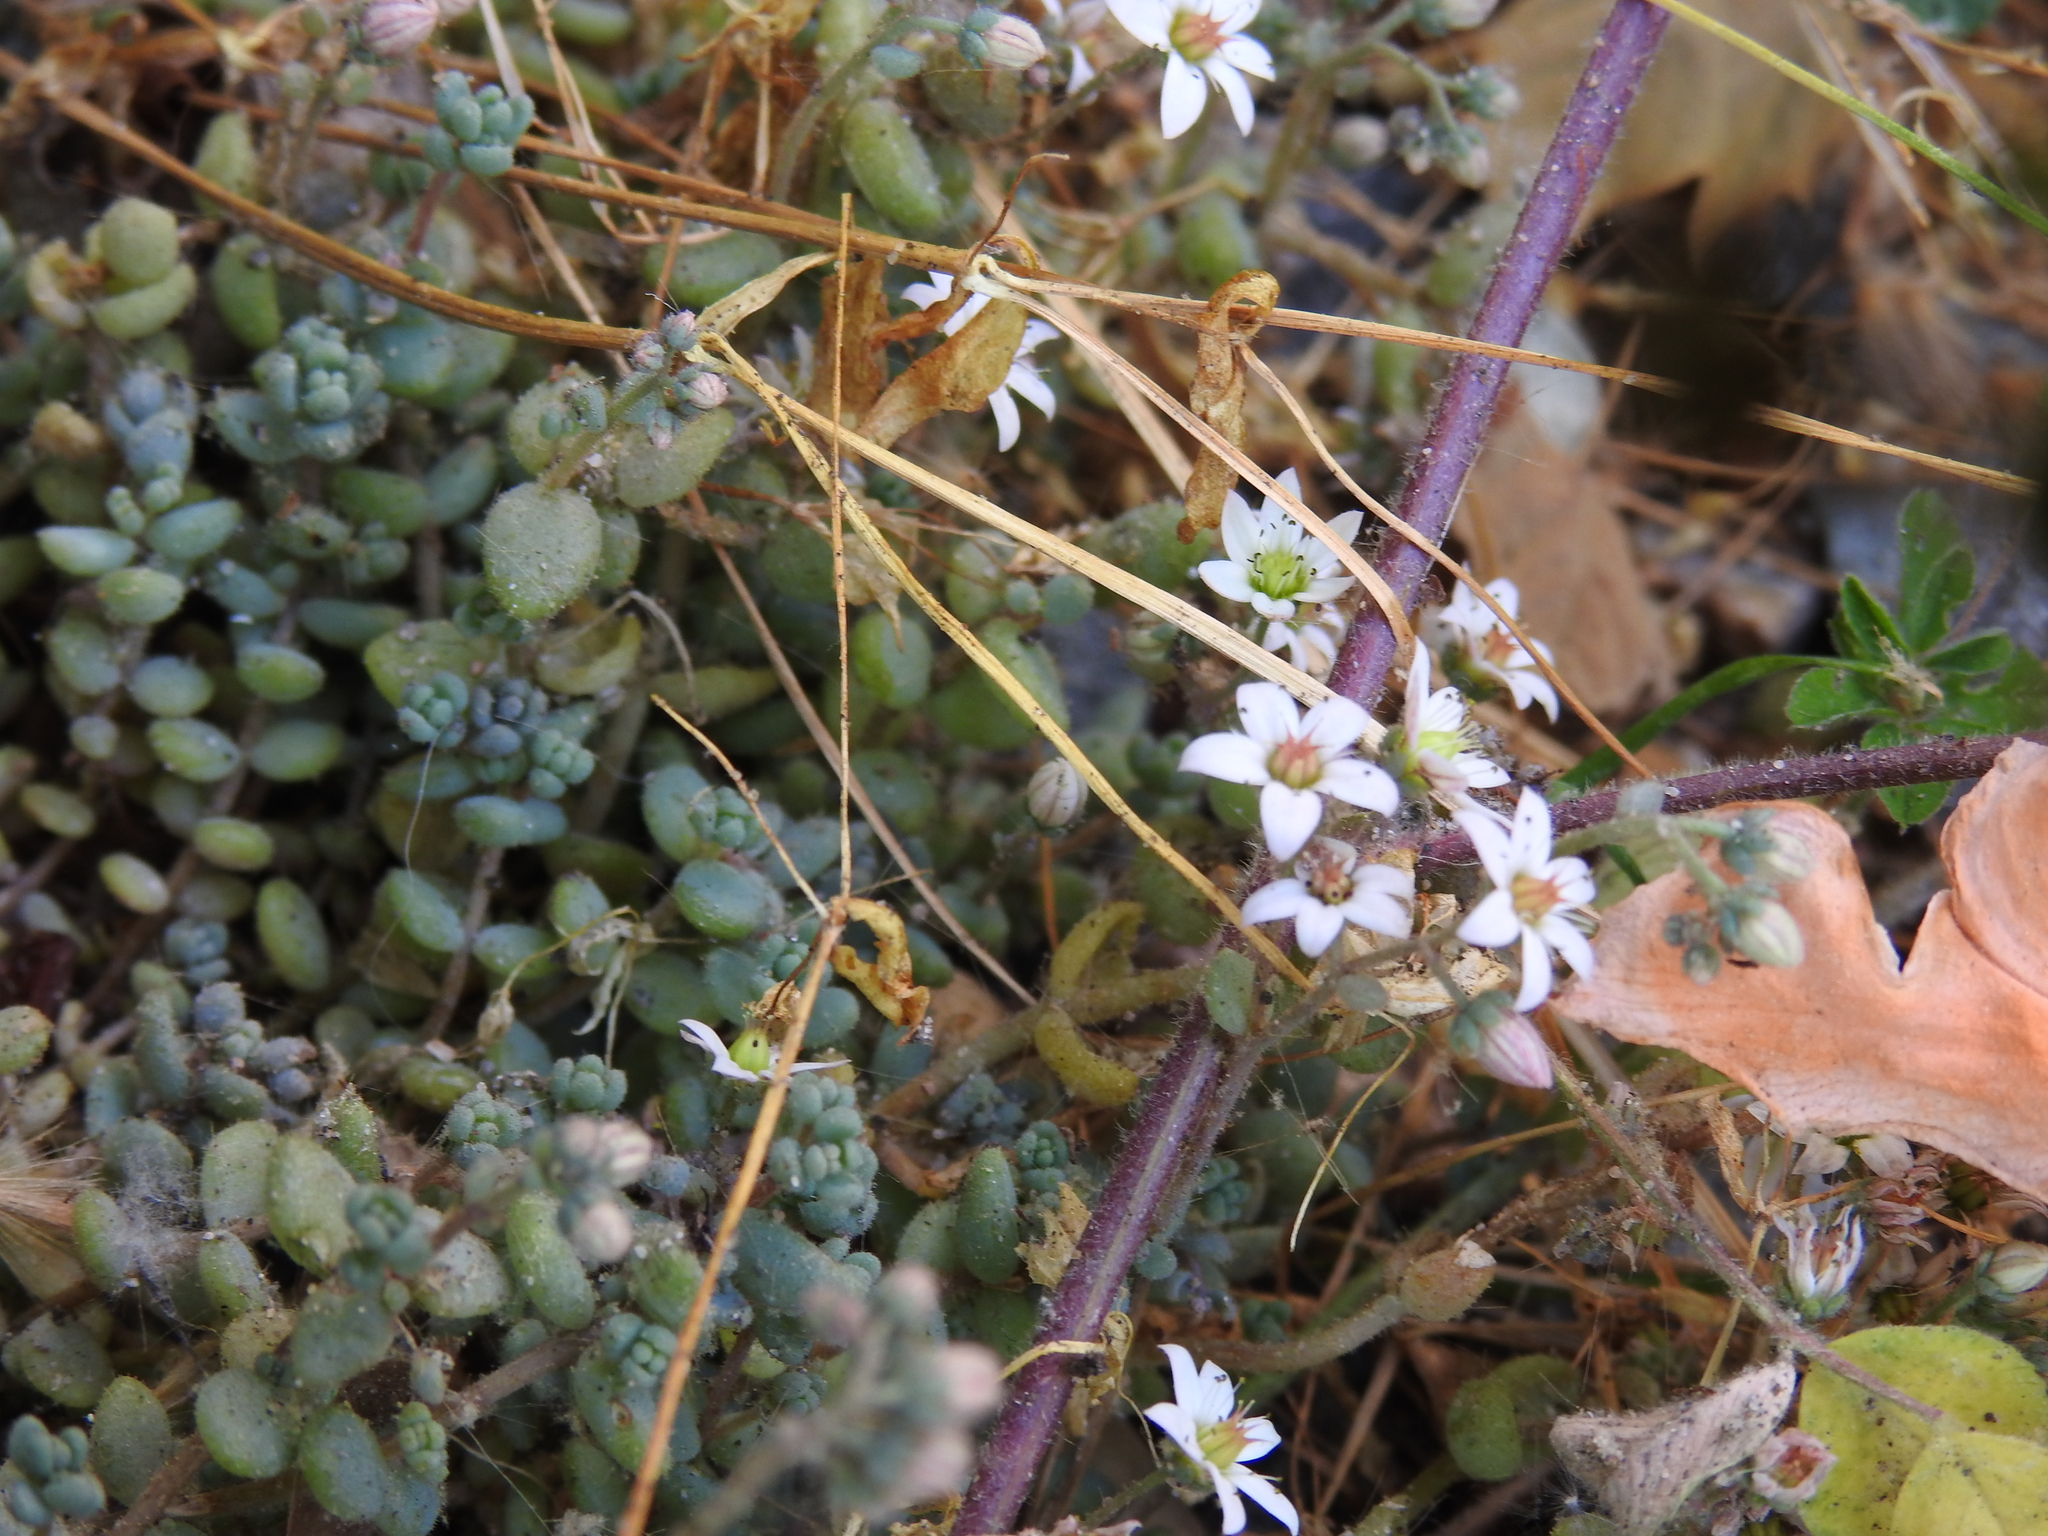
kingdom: Plantae
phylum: Tracheophyta
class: Magnoliopsida
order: Saxifragales
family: Crassulaceae
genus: Sedum
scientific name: Sedum dasyphyllum
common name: Thick-leaf stonecrop
